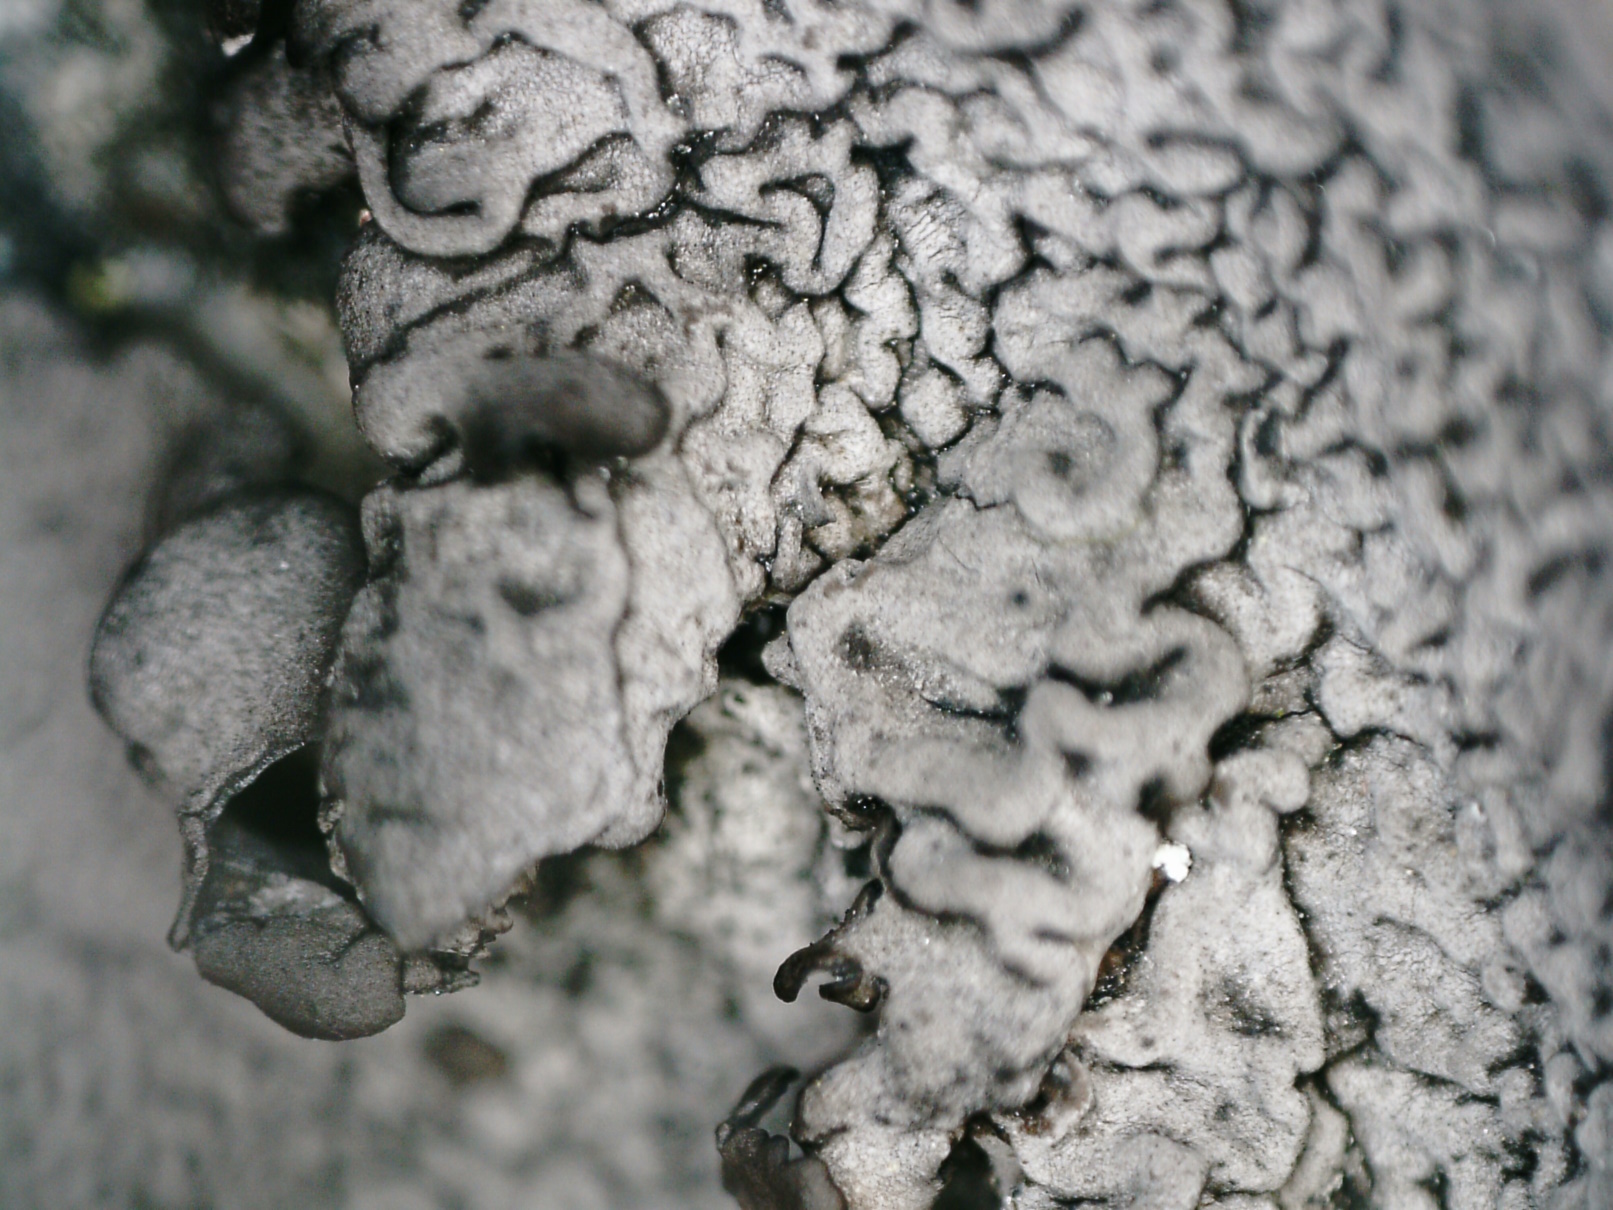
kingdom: Fungi
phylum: Ascomycota
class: Lecanoromycetes
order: Umbilicariales
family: Umbilicariaceae
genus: Umbilicaria
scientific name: Umbilicaria nylanderiana
